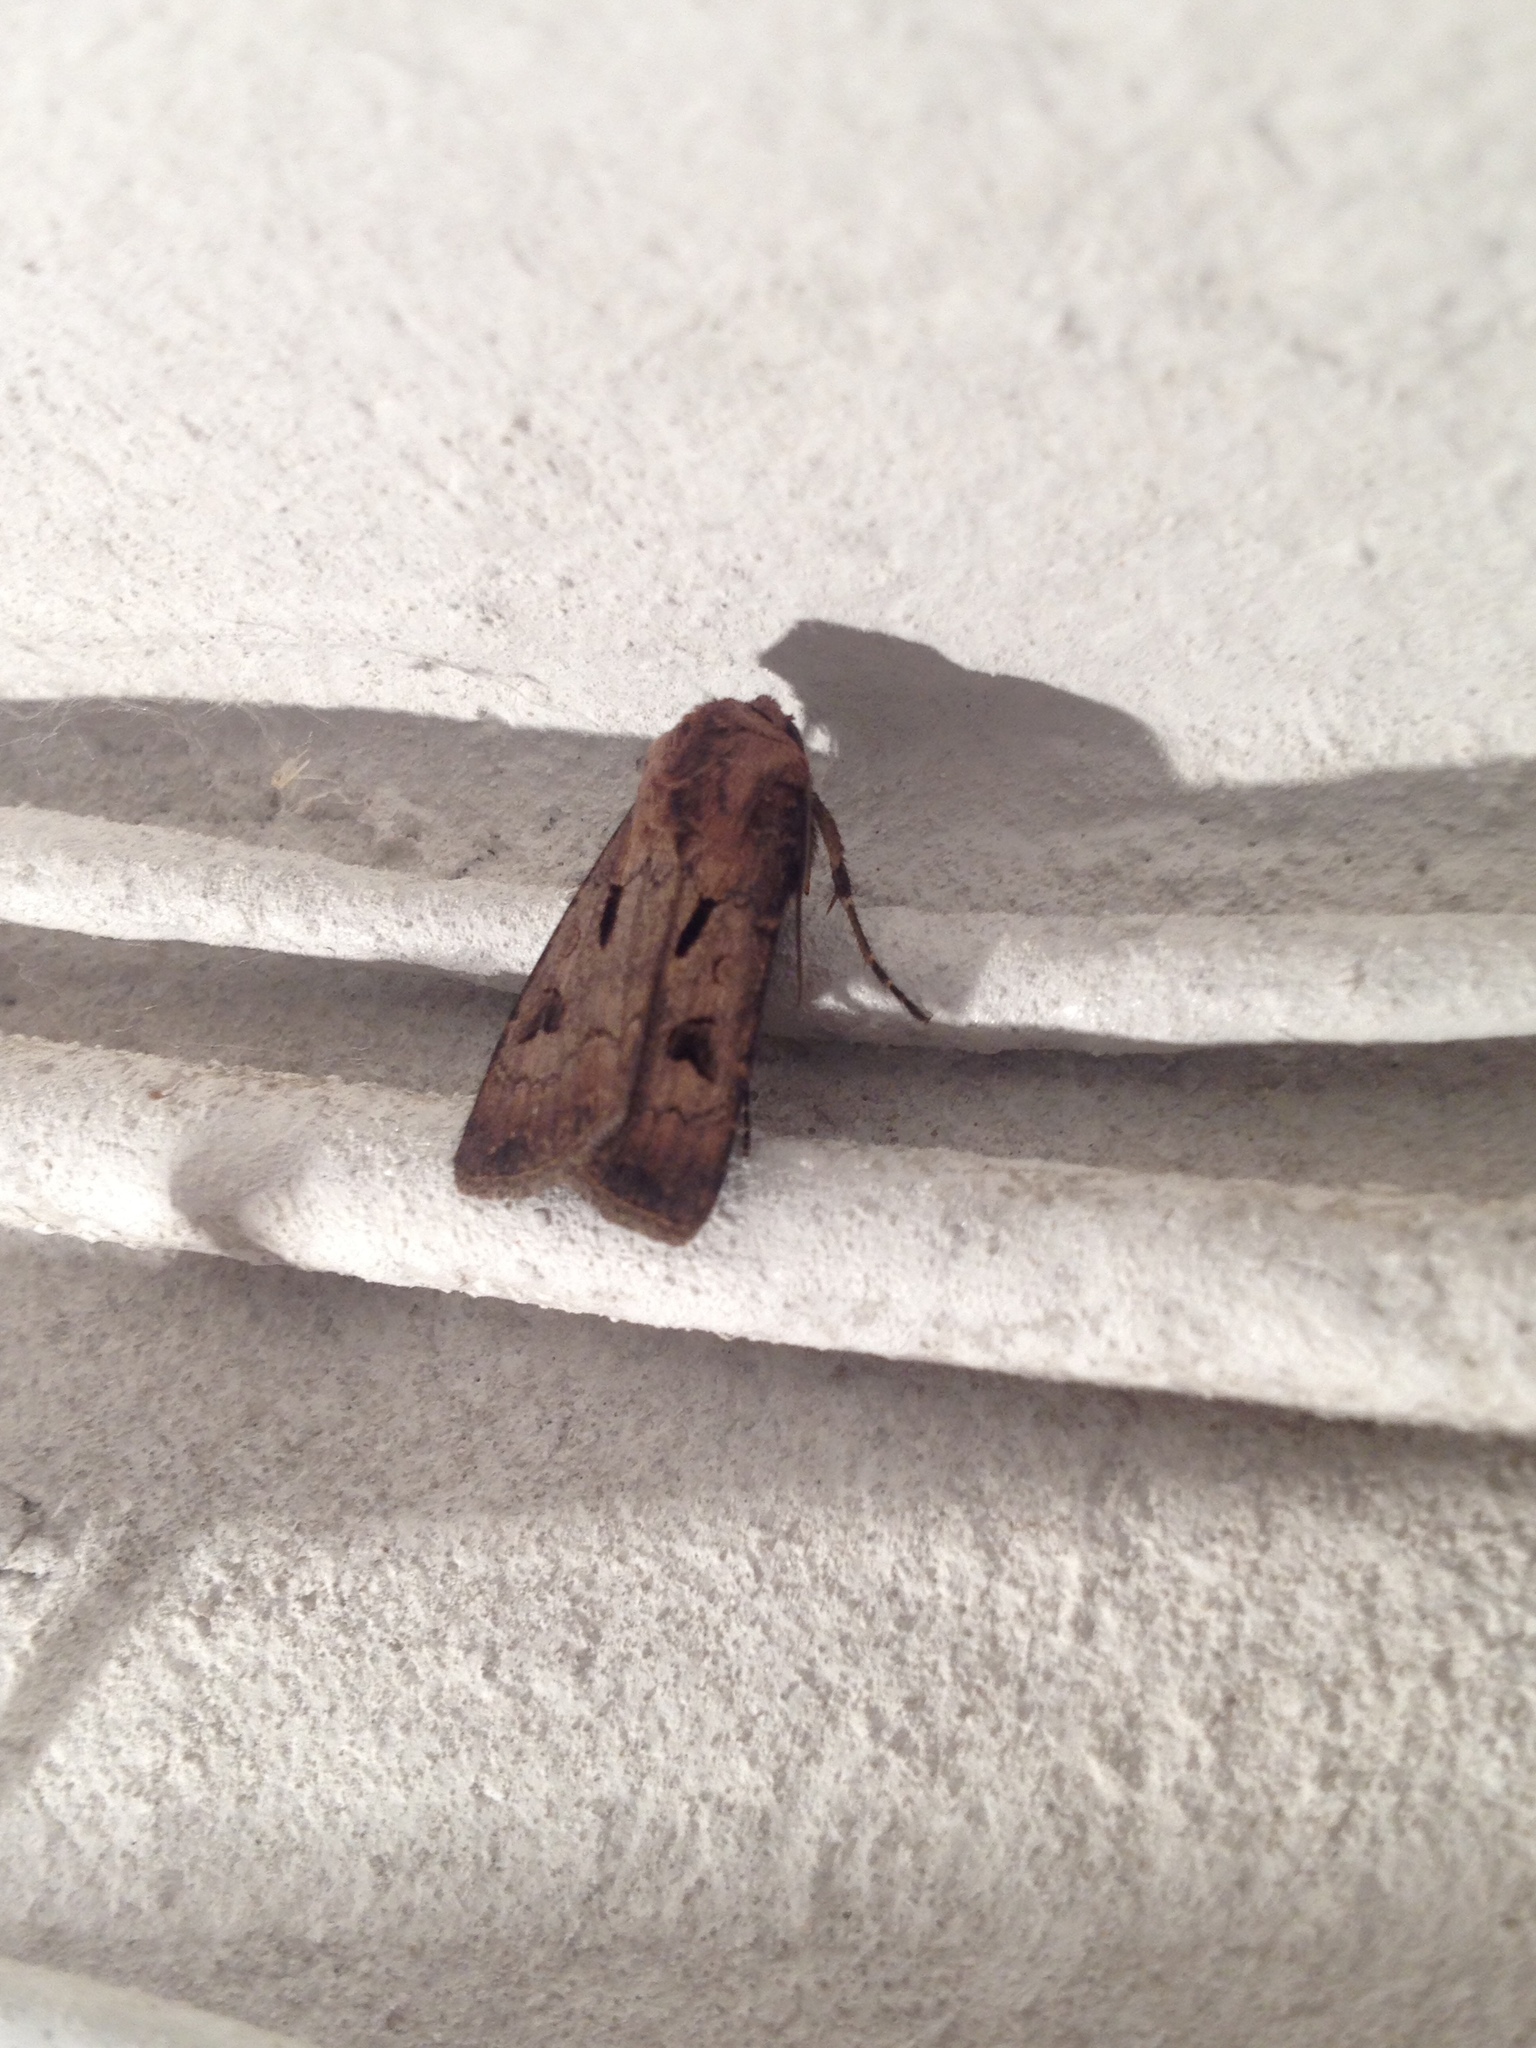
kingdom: Animalia
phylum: Arthropoda
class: Insecta
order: Lepidoptera
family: Noctuidae
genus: Agrotis
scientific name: Agrotis exclamationis
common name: Heart and dart
